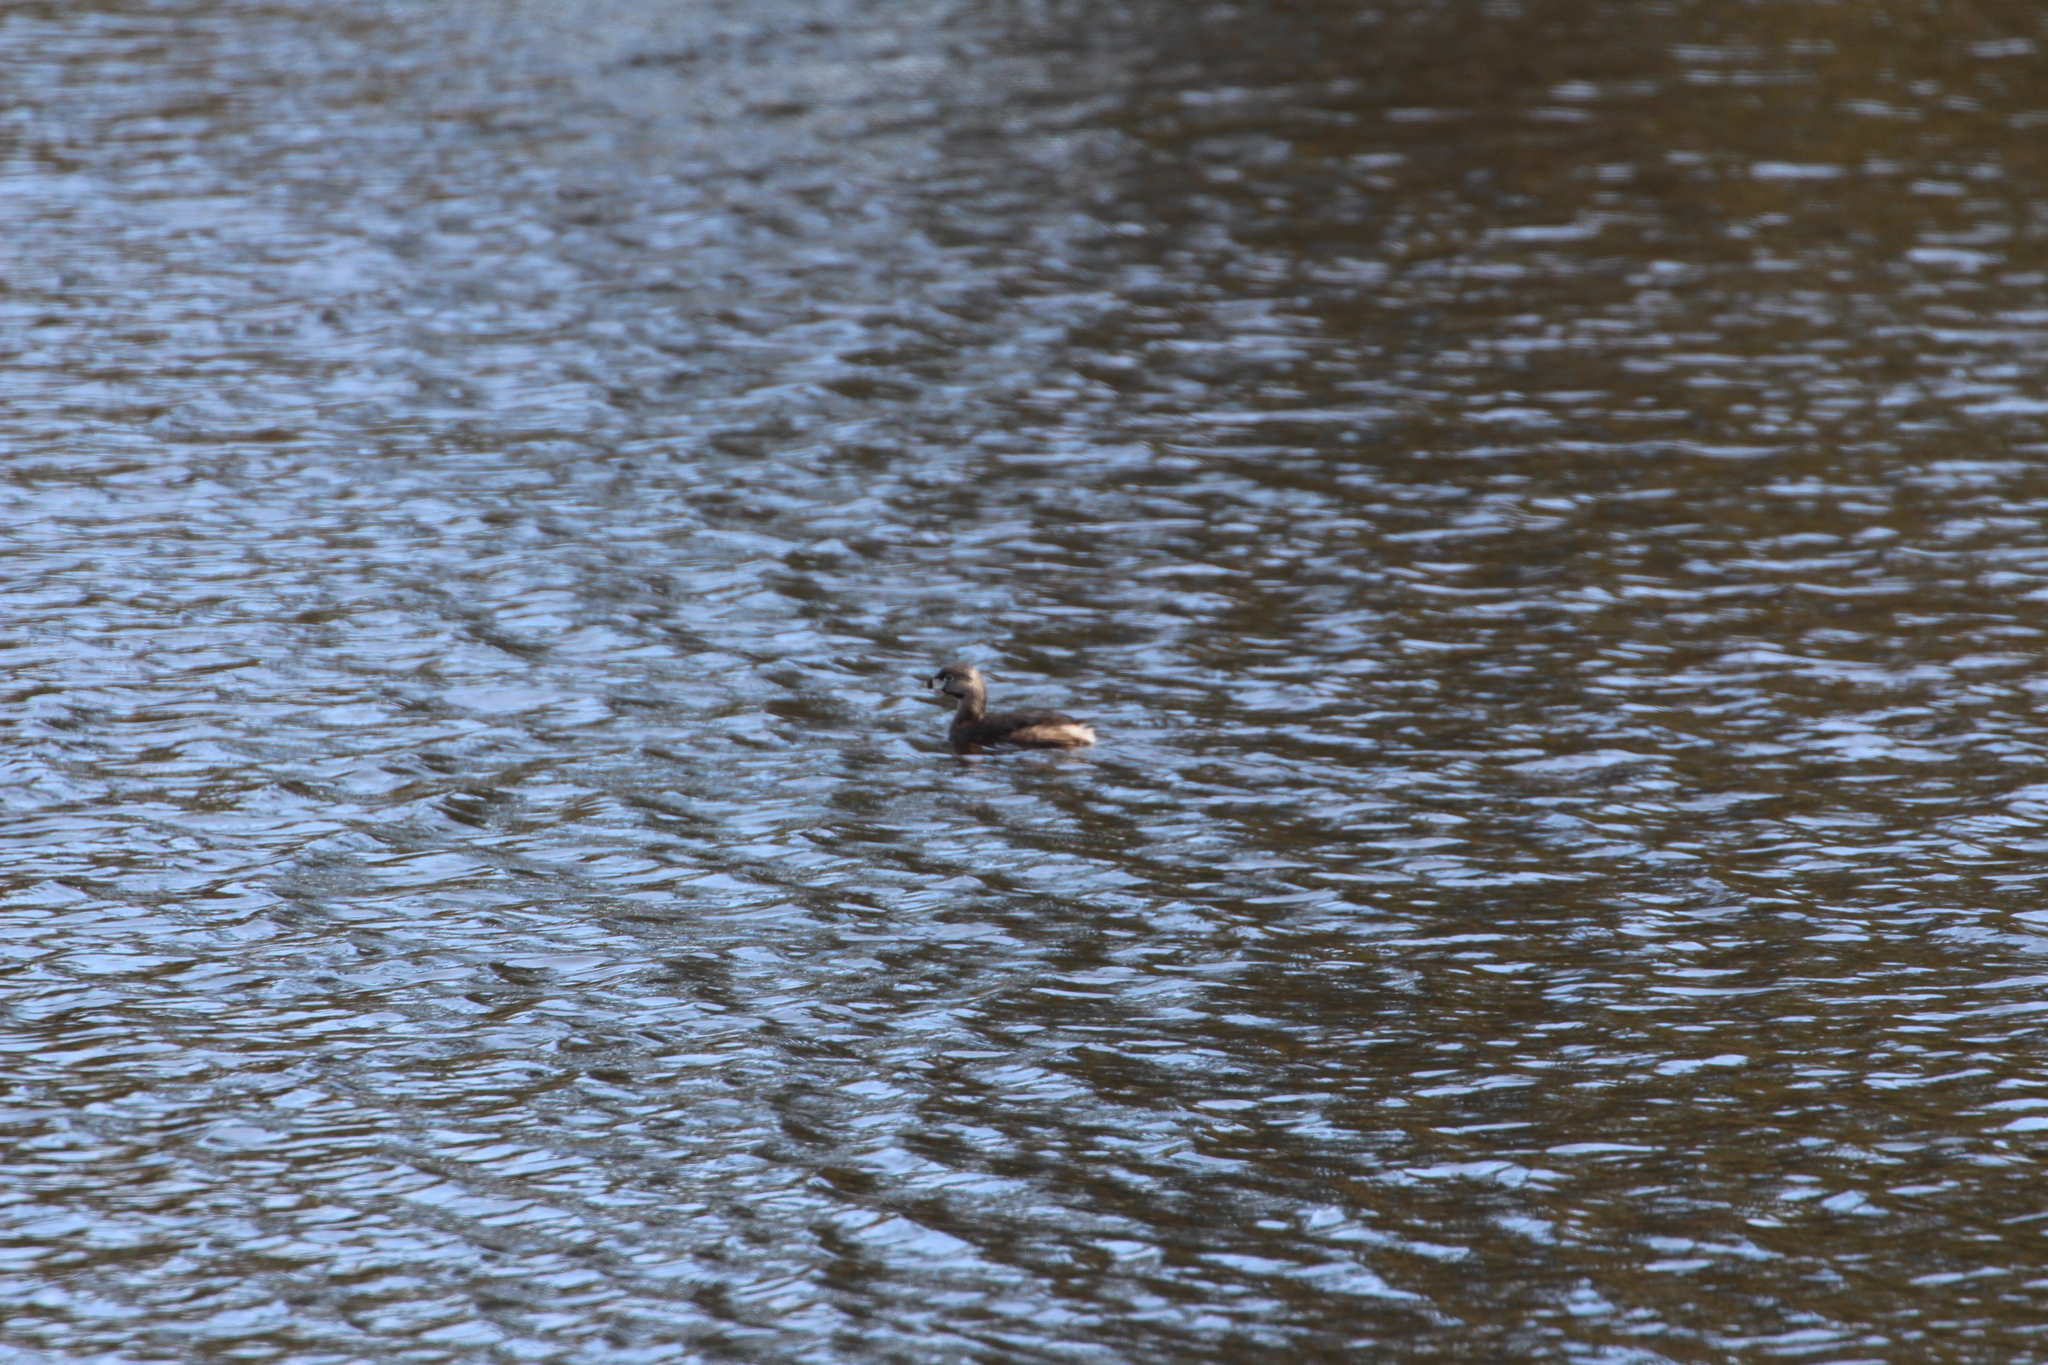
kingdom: Animalia
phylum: Chordata
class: Aves
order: Podicipediformes
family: Podicipedidae
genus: Podilymbus
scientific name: Podilymbus podiceps
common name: Pied-billed grebe
